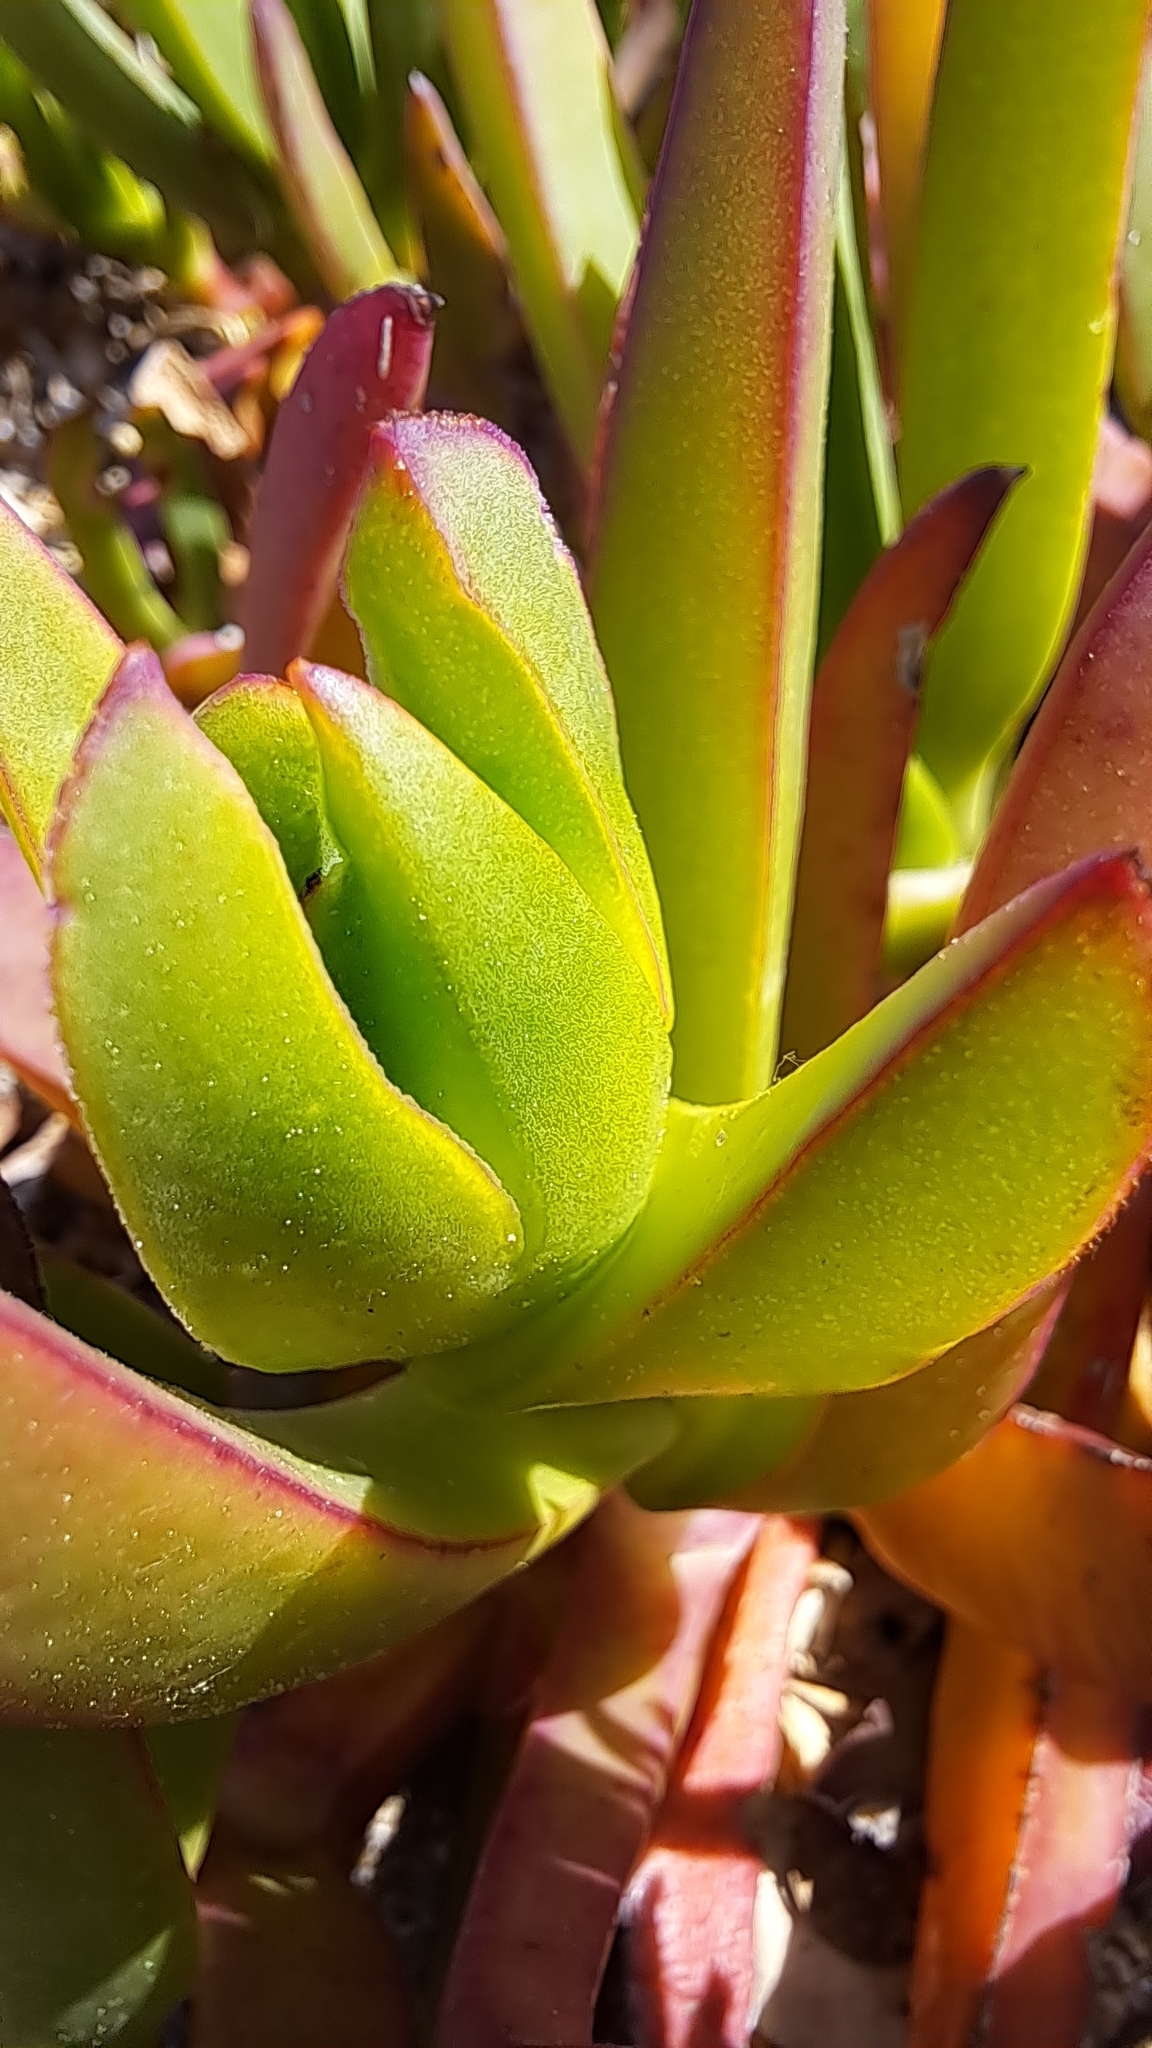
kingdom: Plantae
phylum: Tracheophyta
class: Magnoliopsida
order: Caryophyllales
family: Aizoaceae
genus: Carpobrotus
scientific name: Carpobrotus edulis
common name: Hottentot-fig
